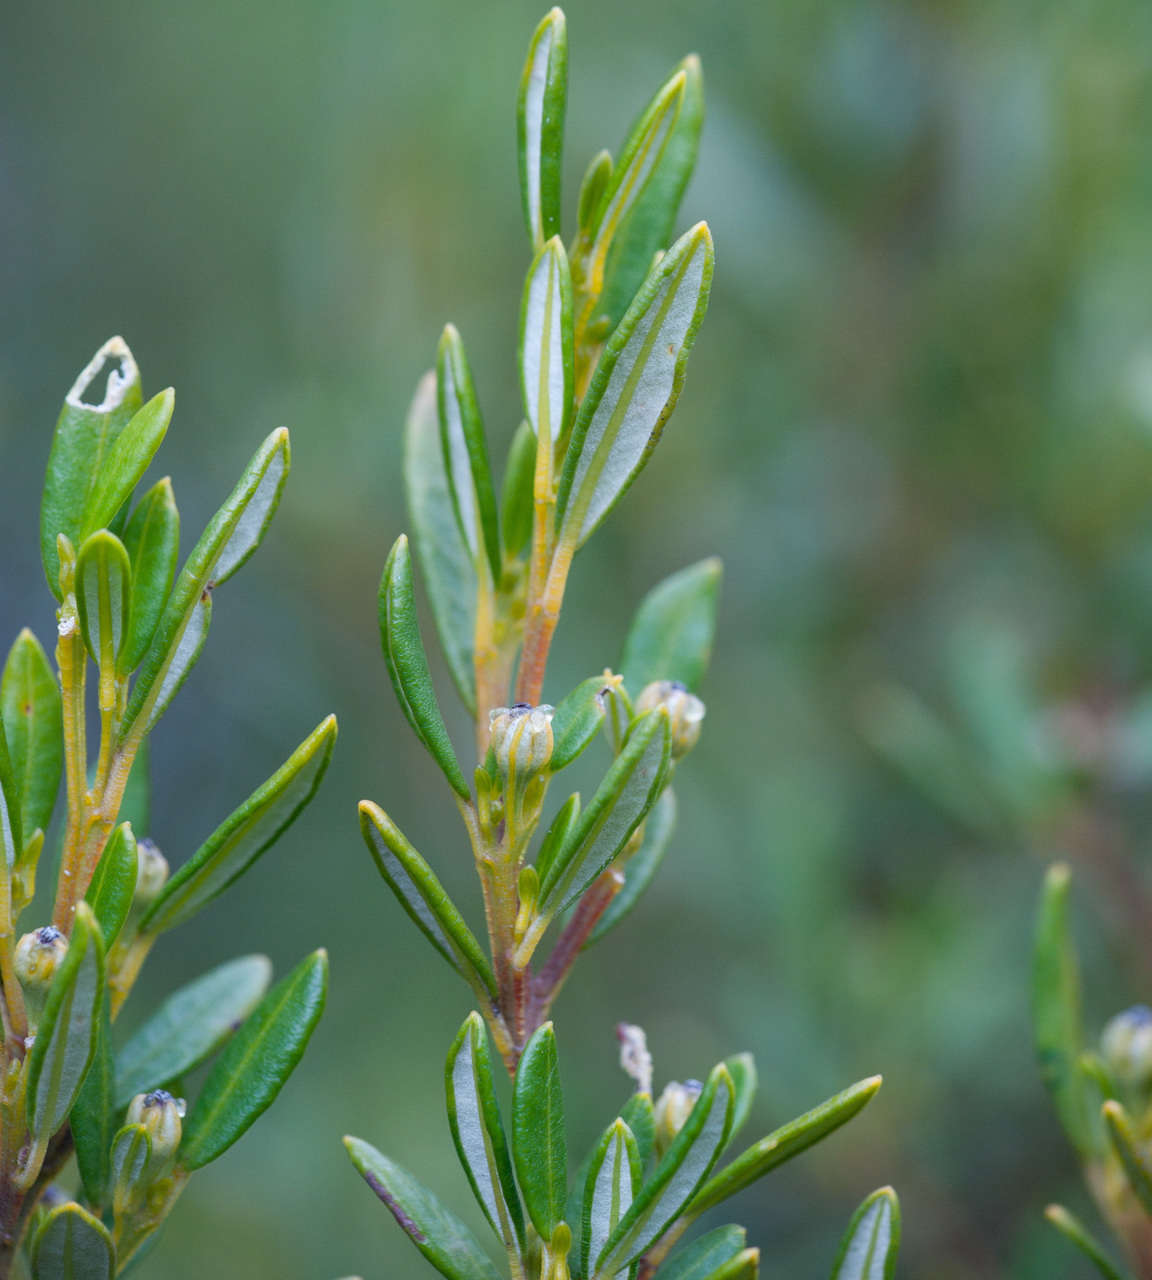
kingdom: Plantae
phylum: Tracheophyta
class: Magnoliopsida
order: Malpighiales
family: Euphorbiaceae
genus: Beyeria
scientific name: Beyeria lechenaultii
